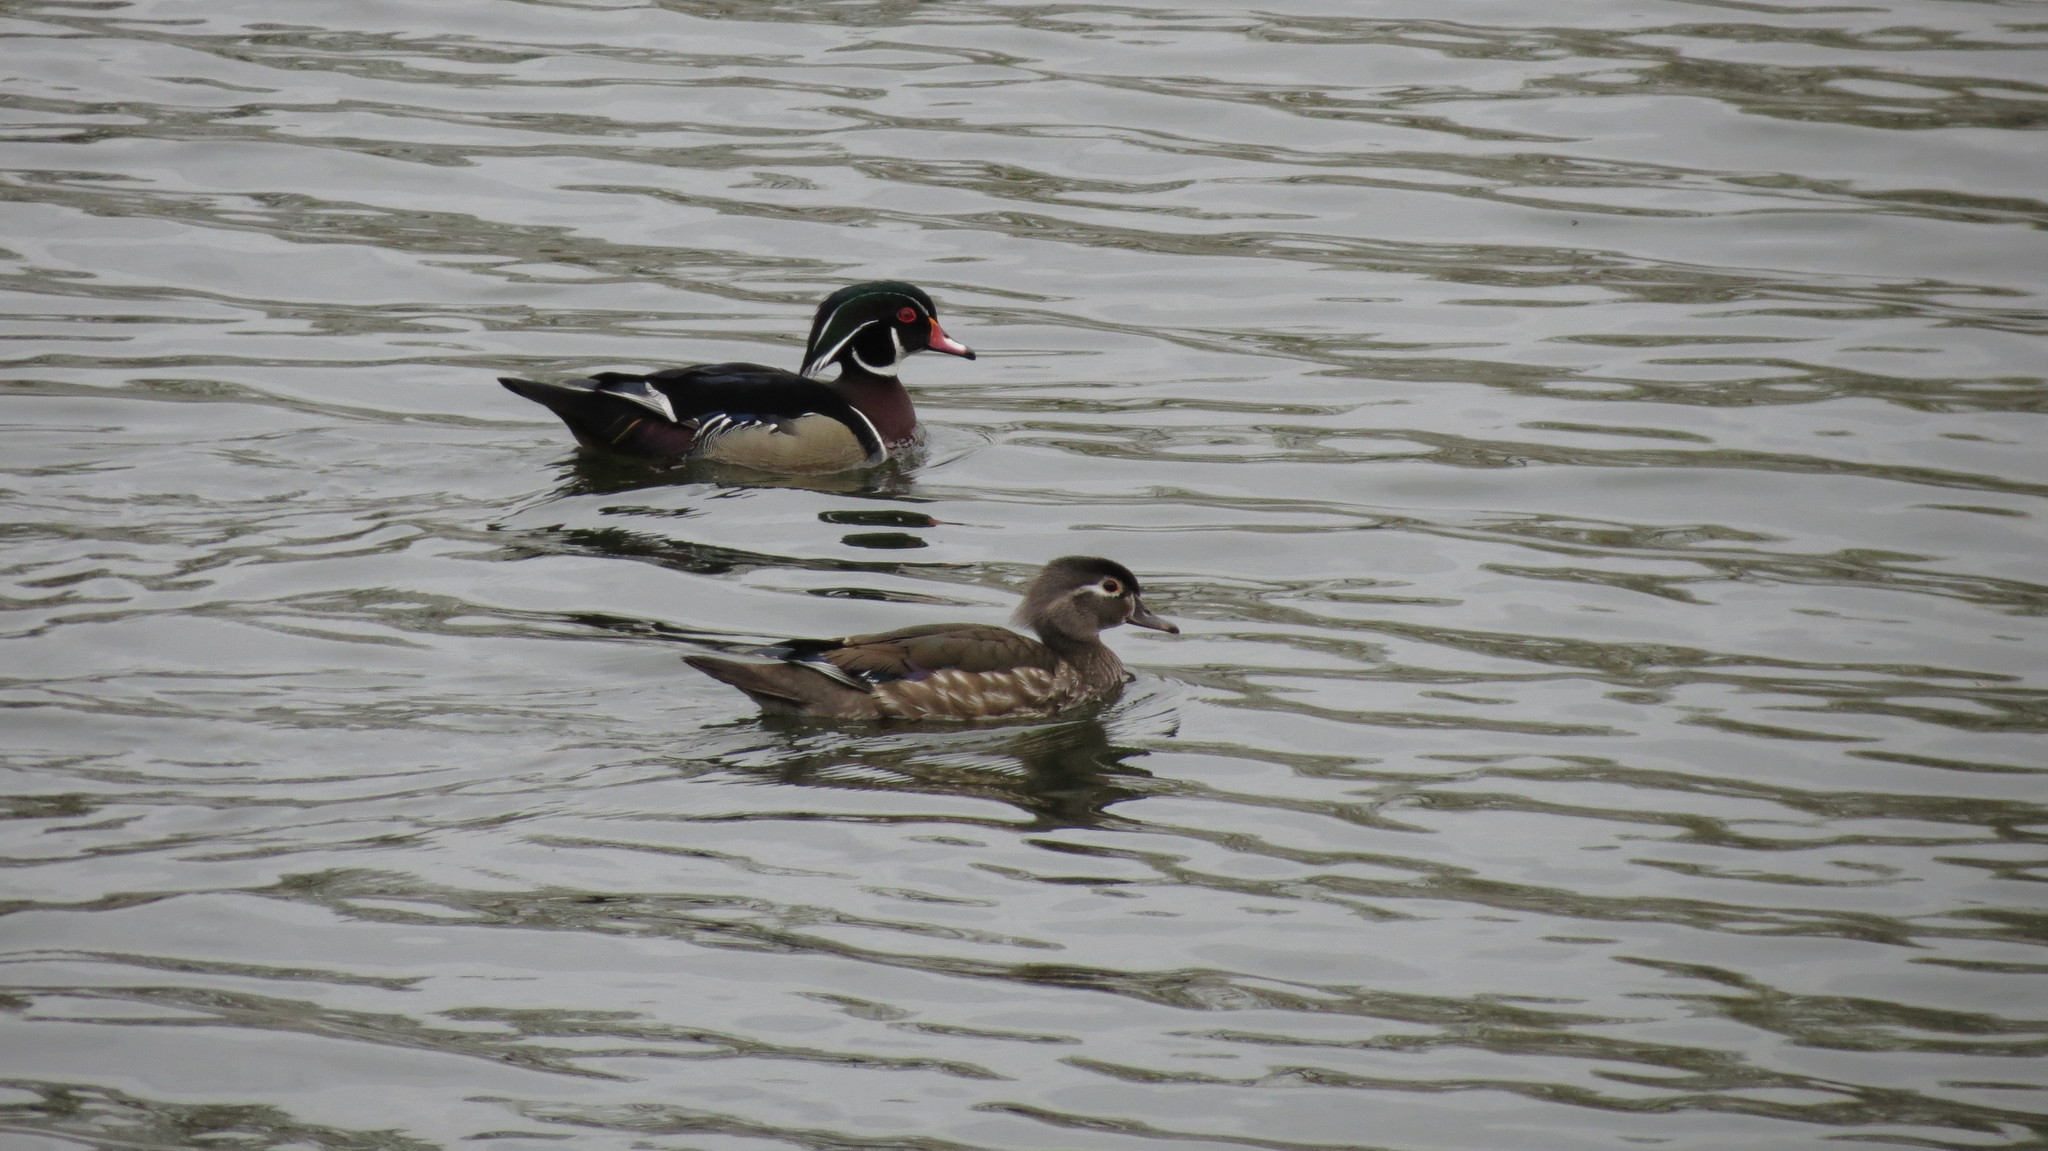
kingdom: Animalia
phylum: Chordata
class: Aves
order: Anseriformes
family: Anatidae
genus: Aix
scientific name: Aix sponsa
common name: Wood duck
